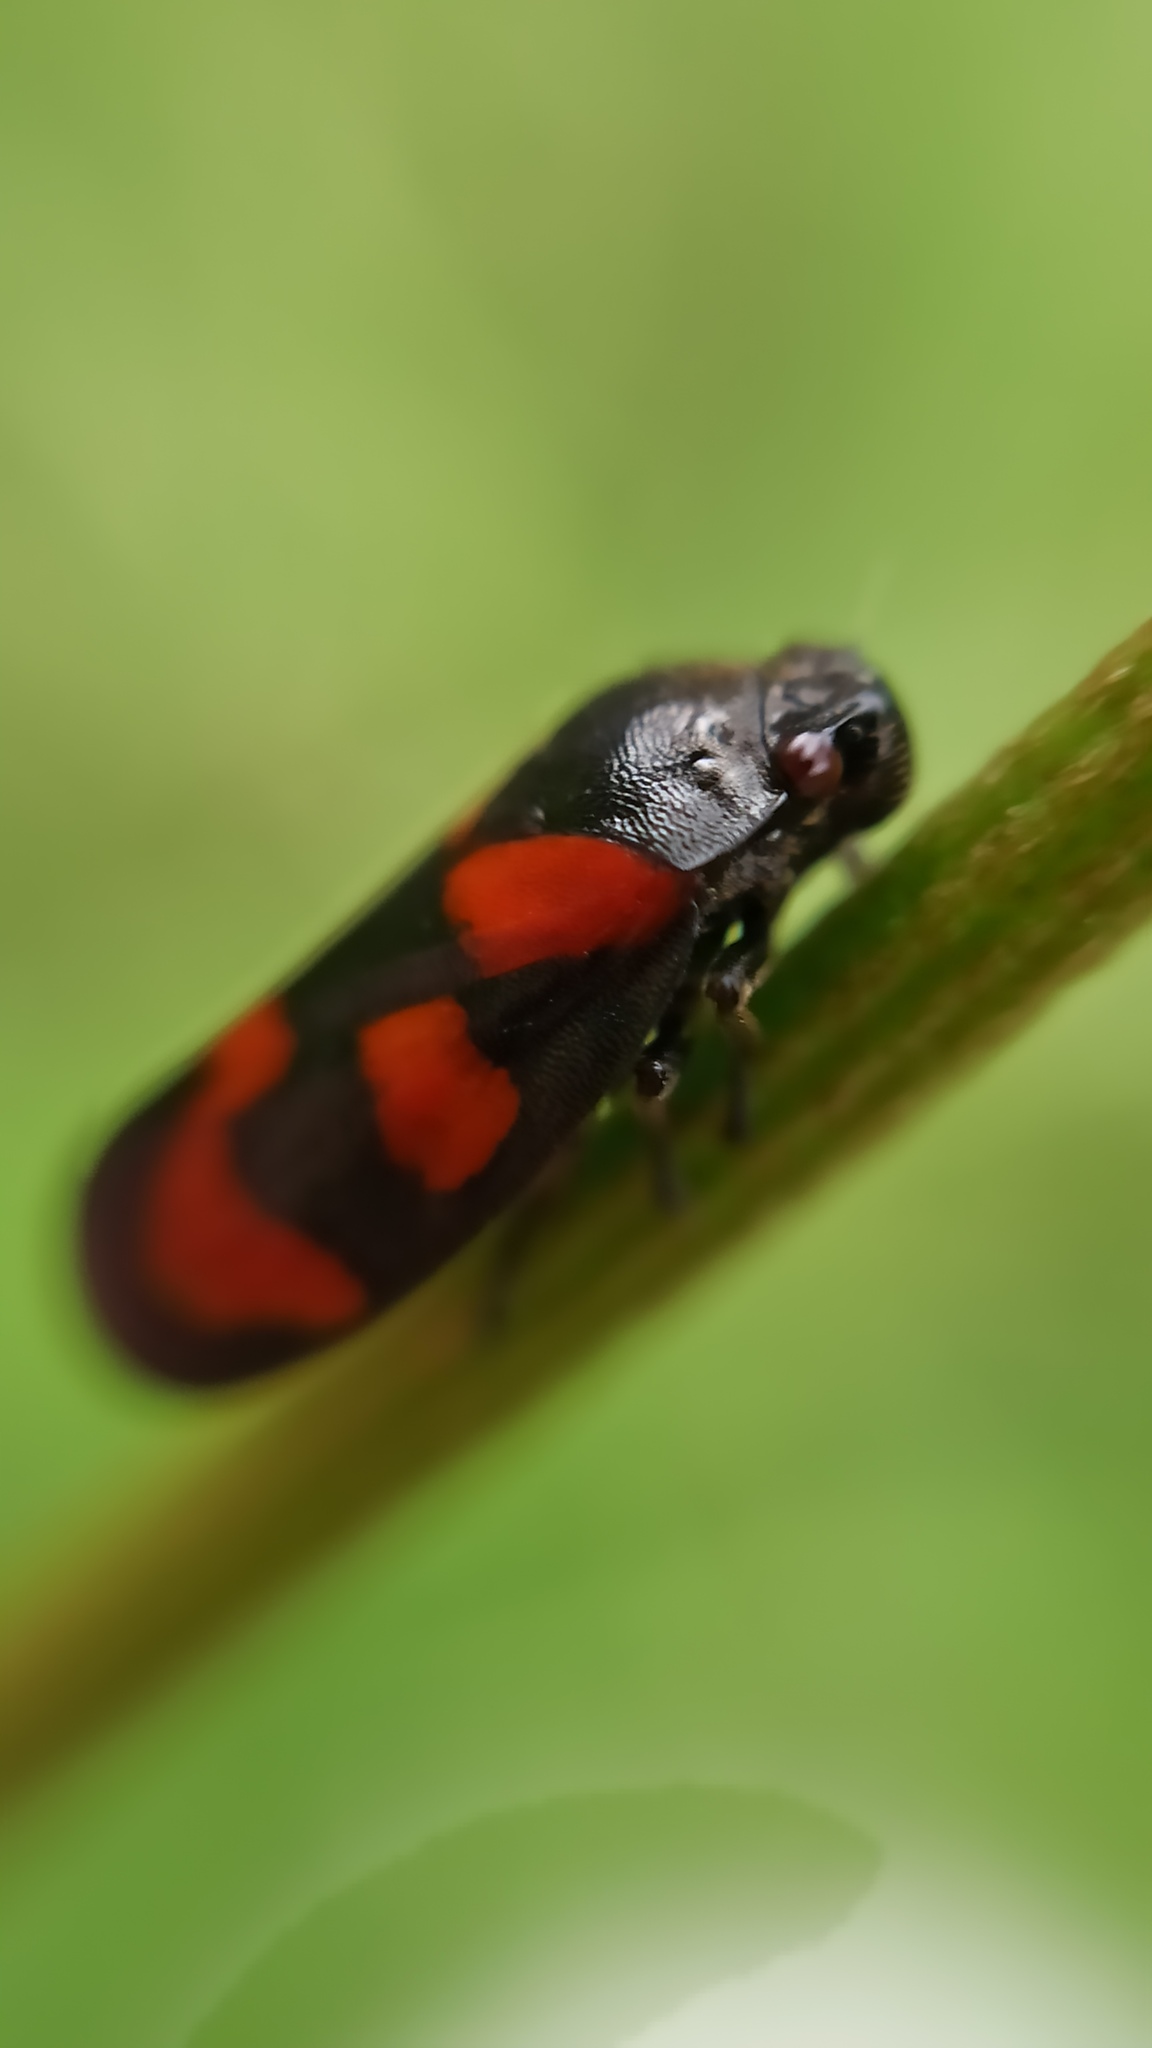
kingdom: Animalia
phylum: Arthropoda
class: Insecta
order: Hemiptera
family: Cercopidae
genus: Cercopis
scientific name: Cercopis vulnerata
